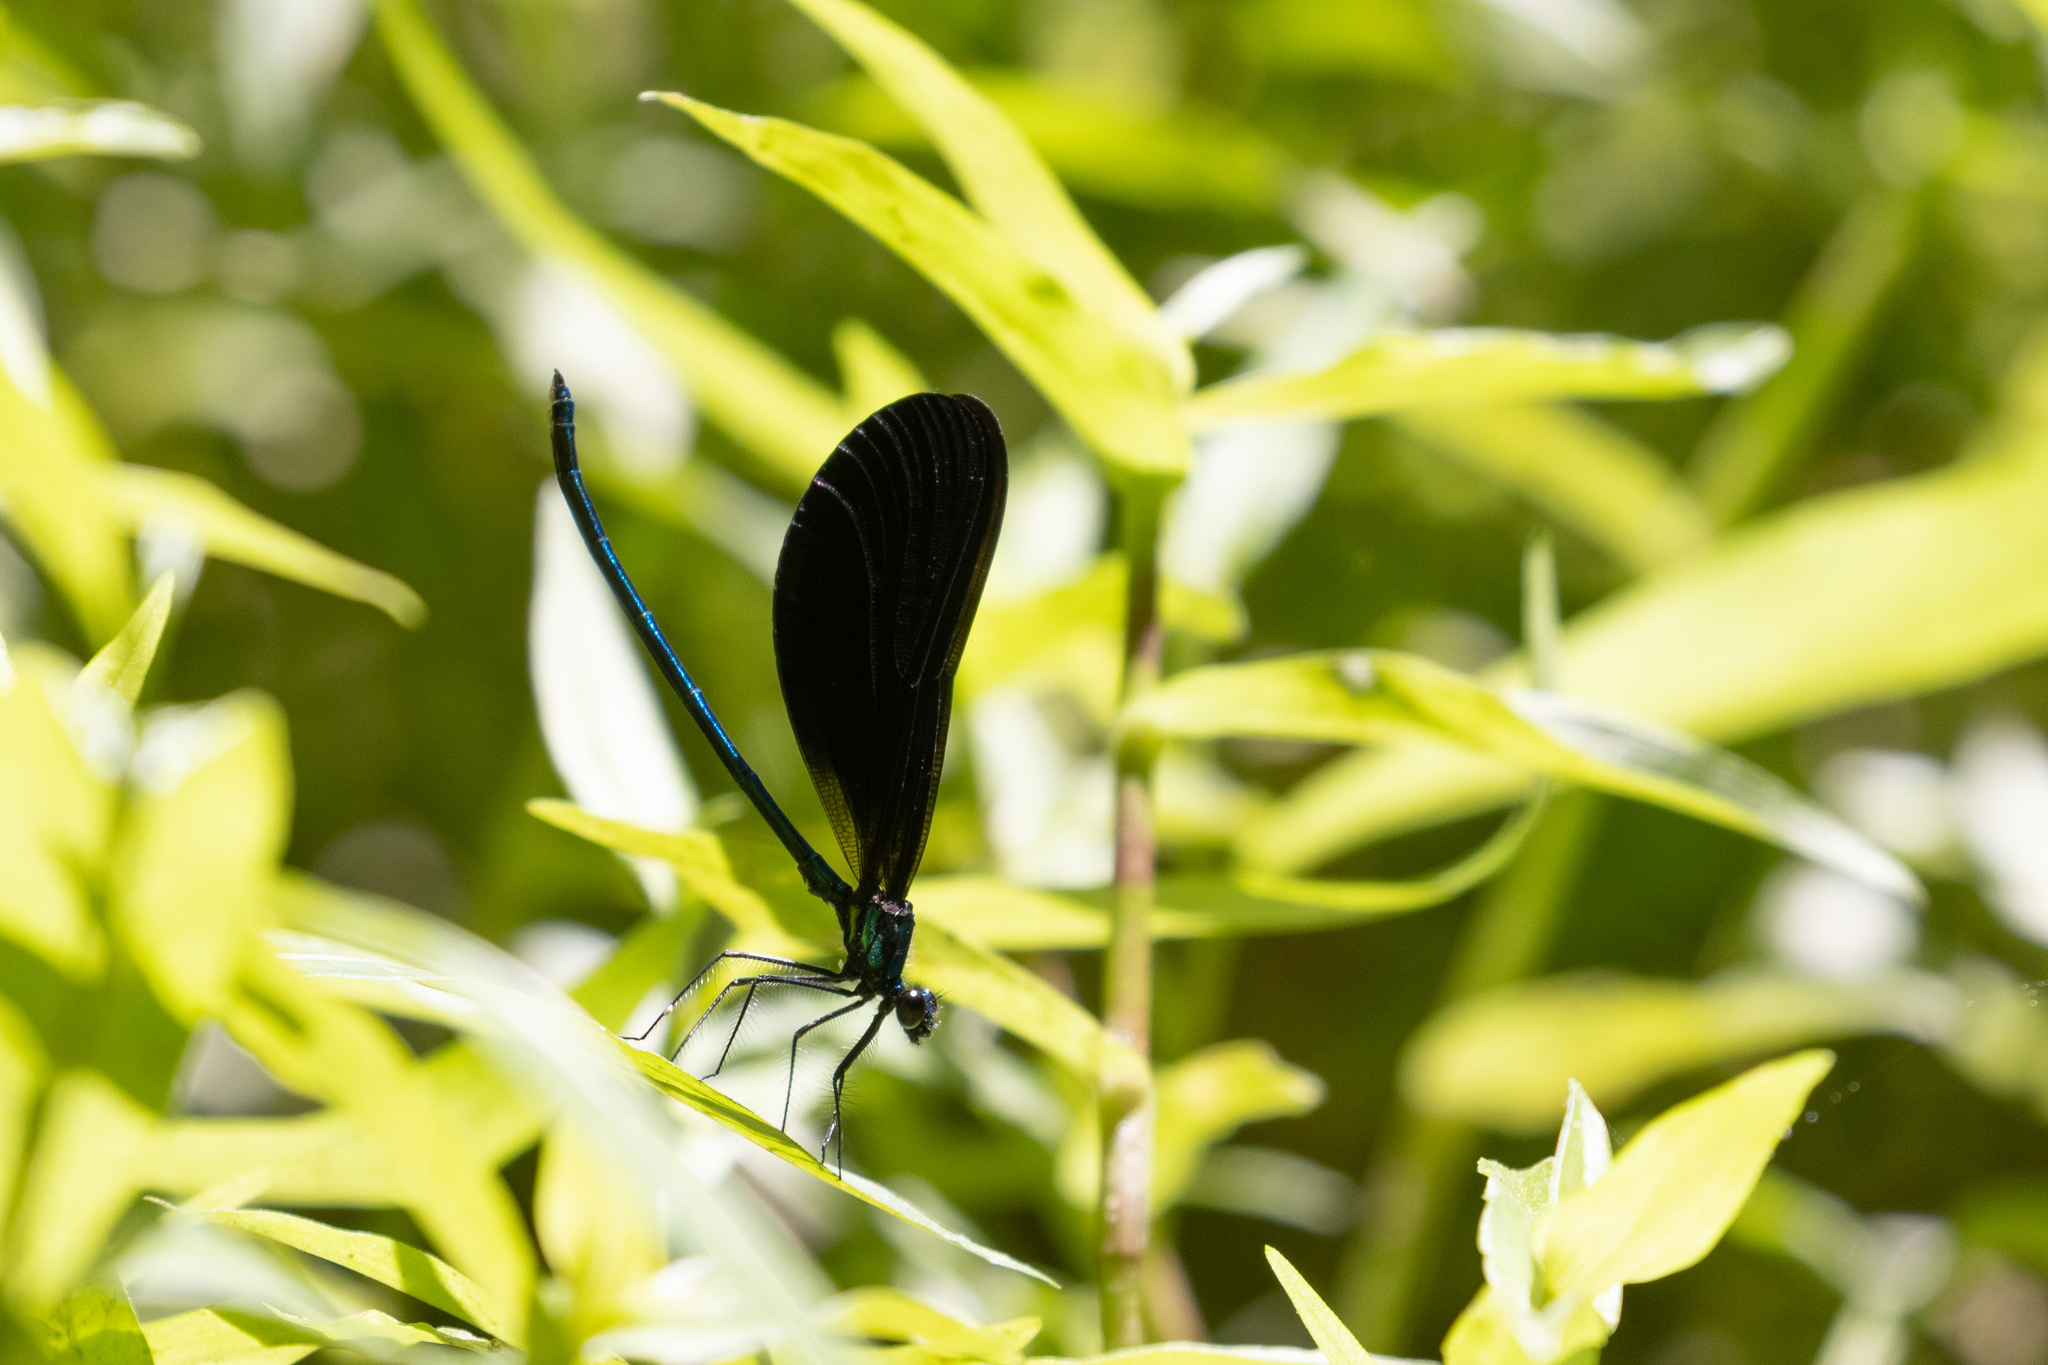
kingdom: Animalia
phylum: Arthropoda
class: Insecta
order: Odonata
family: Calopterygidae
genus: Calopteryx
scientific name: Calopteryx maculata
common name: Ebony jewelwing
